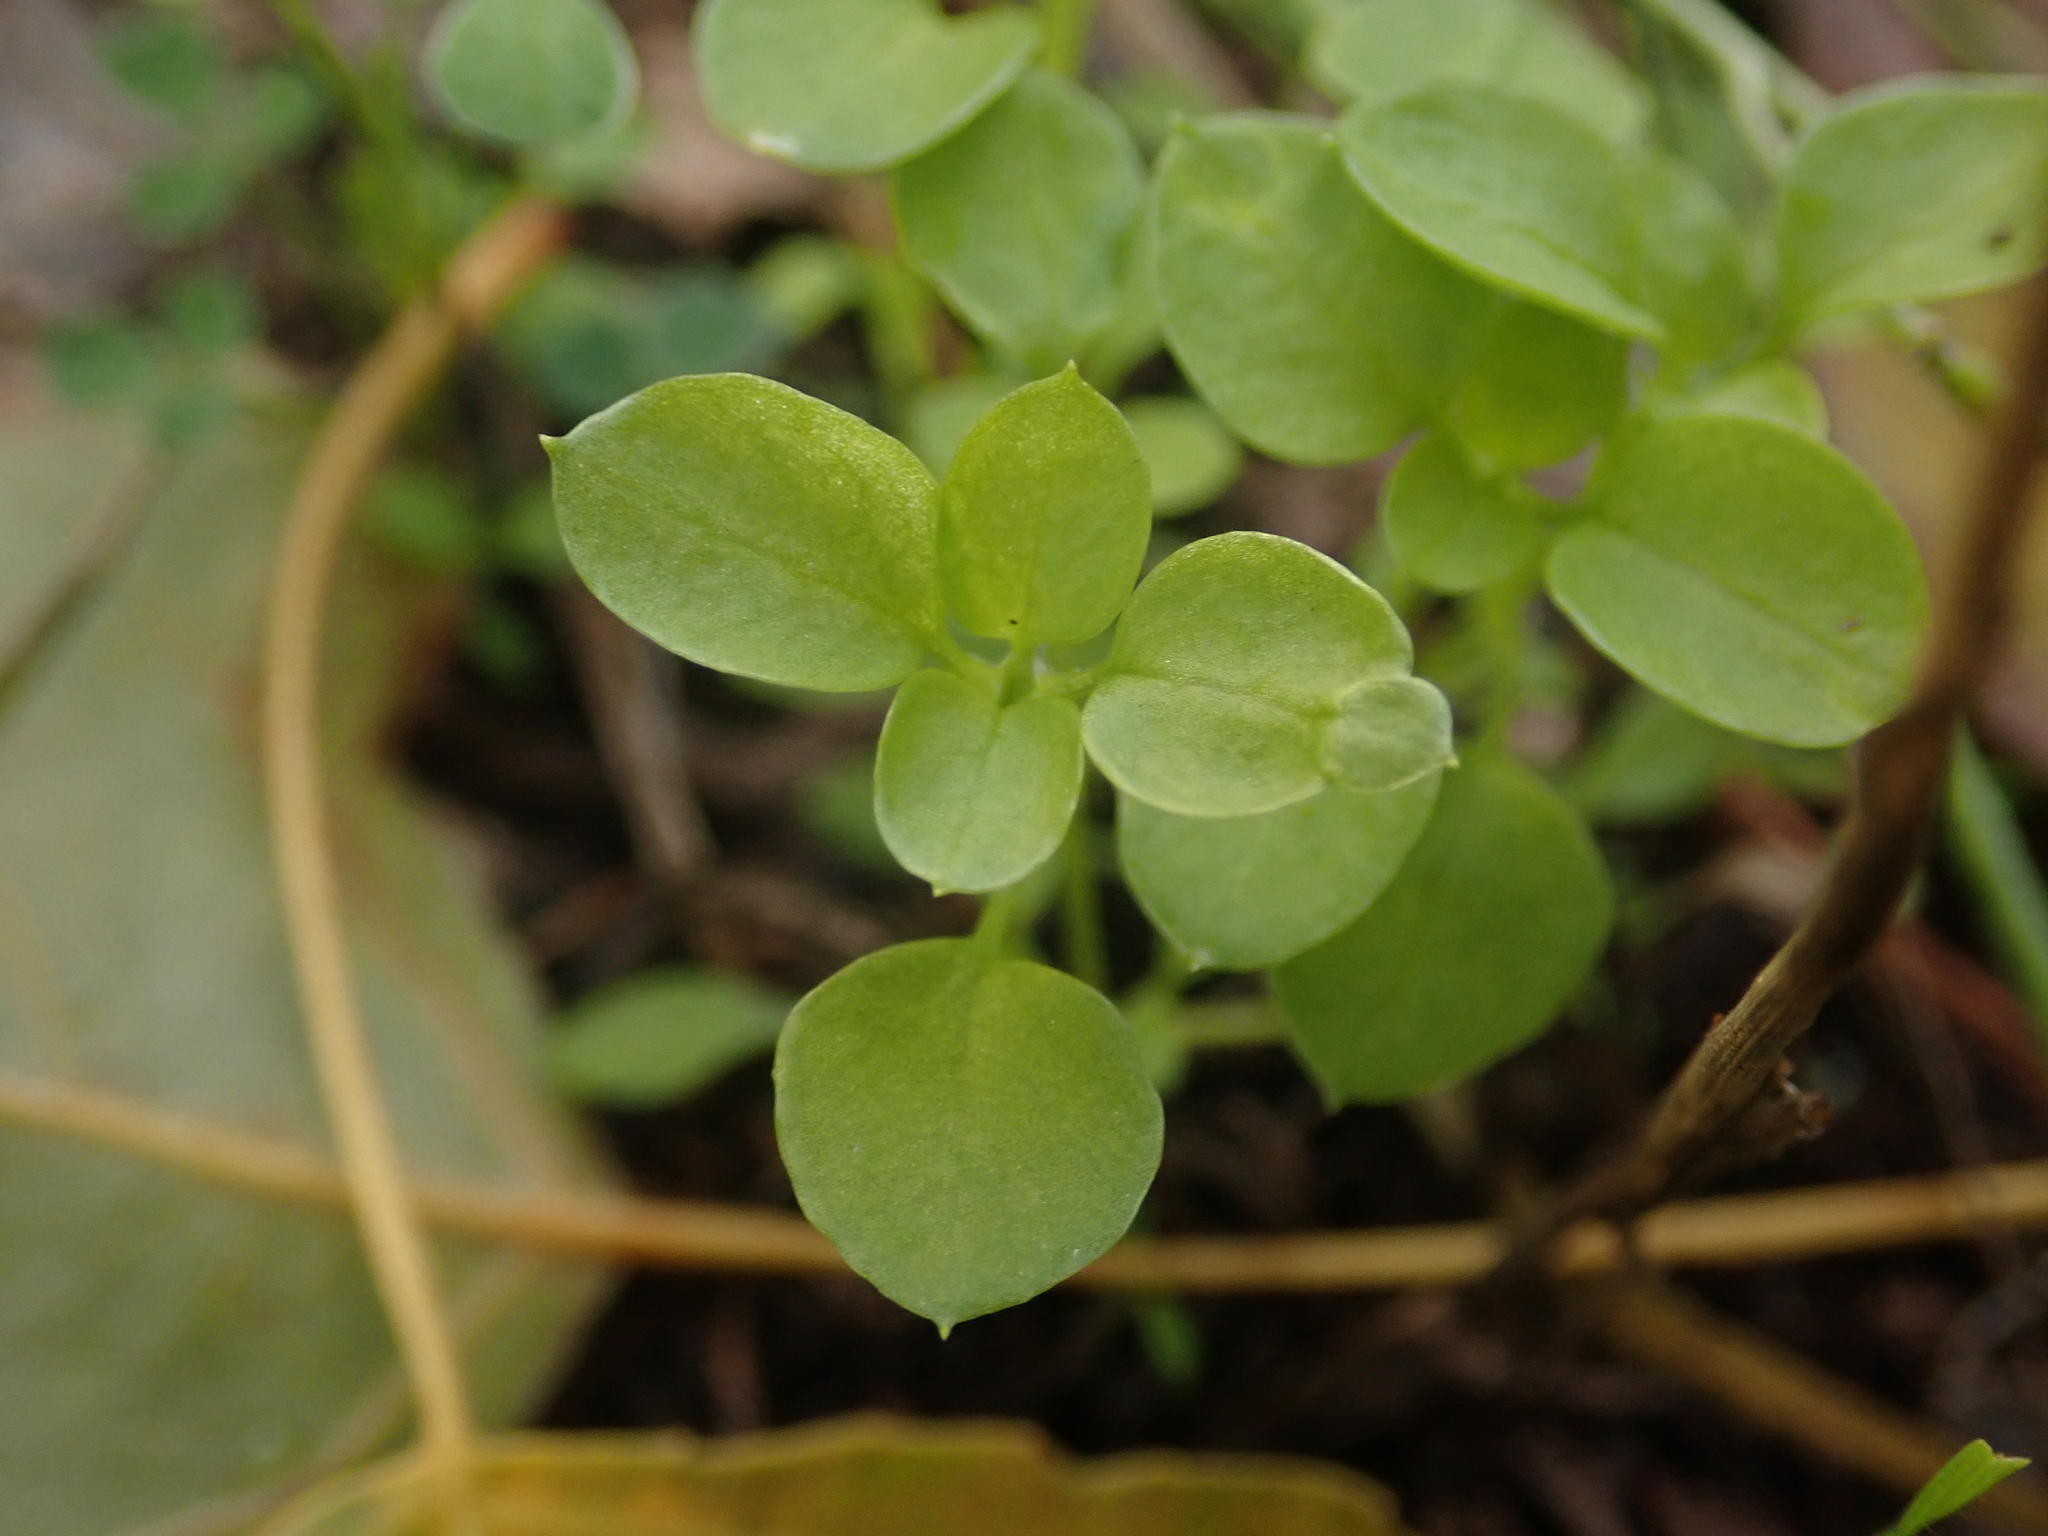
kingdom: Plantae
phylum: Tracheophyta
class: Magnoliopsida
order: Caryophyllales
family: Caryophyllaceae
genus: Stellaria
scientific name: Stellaria media
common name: Common chickweed
